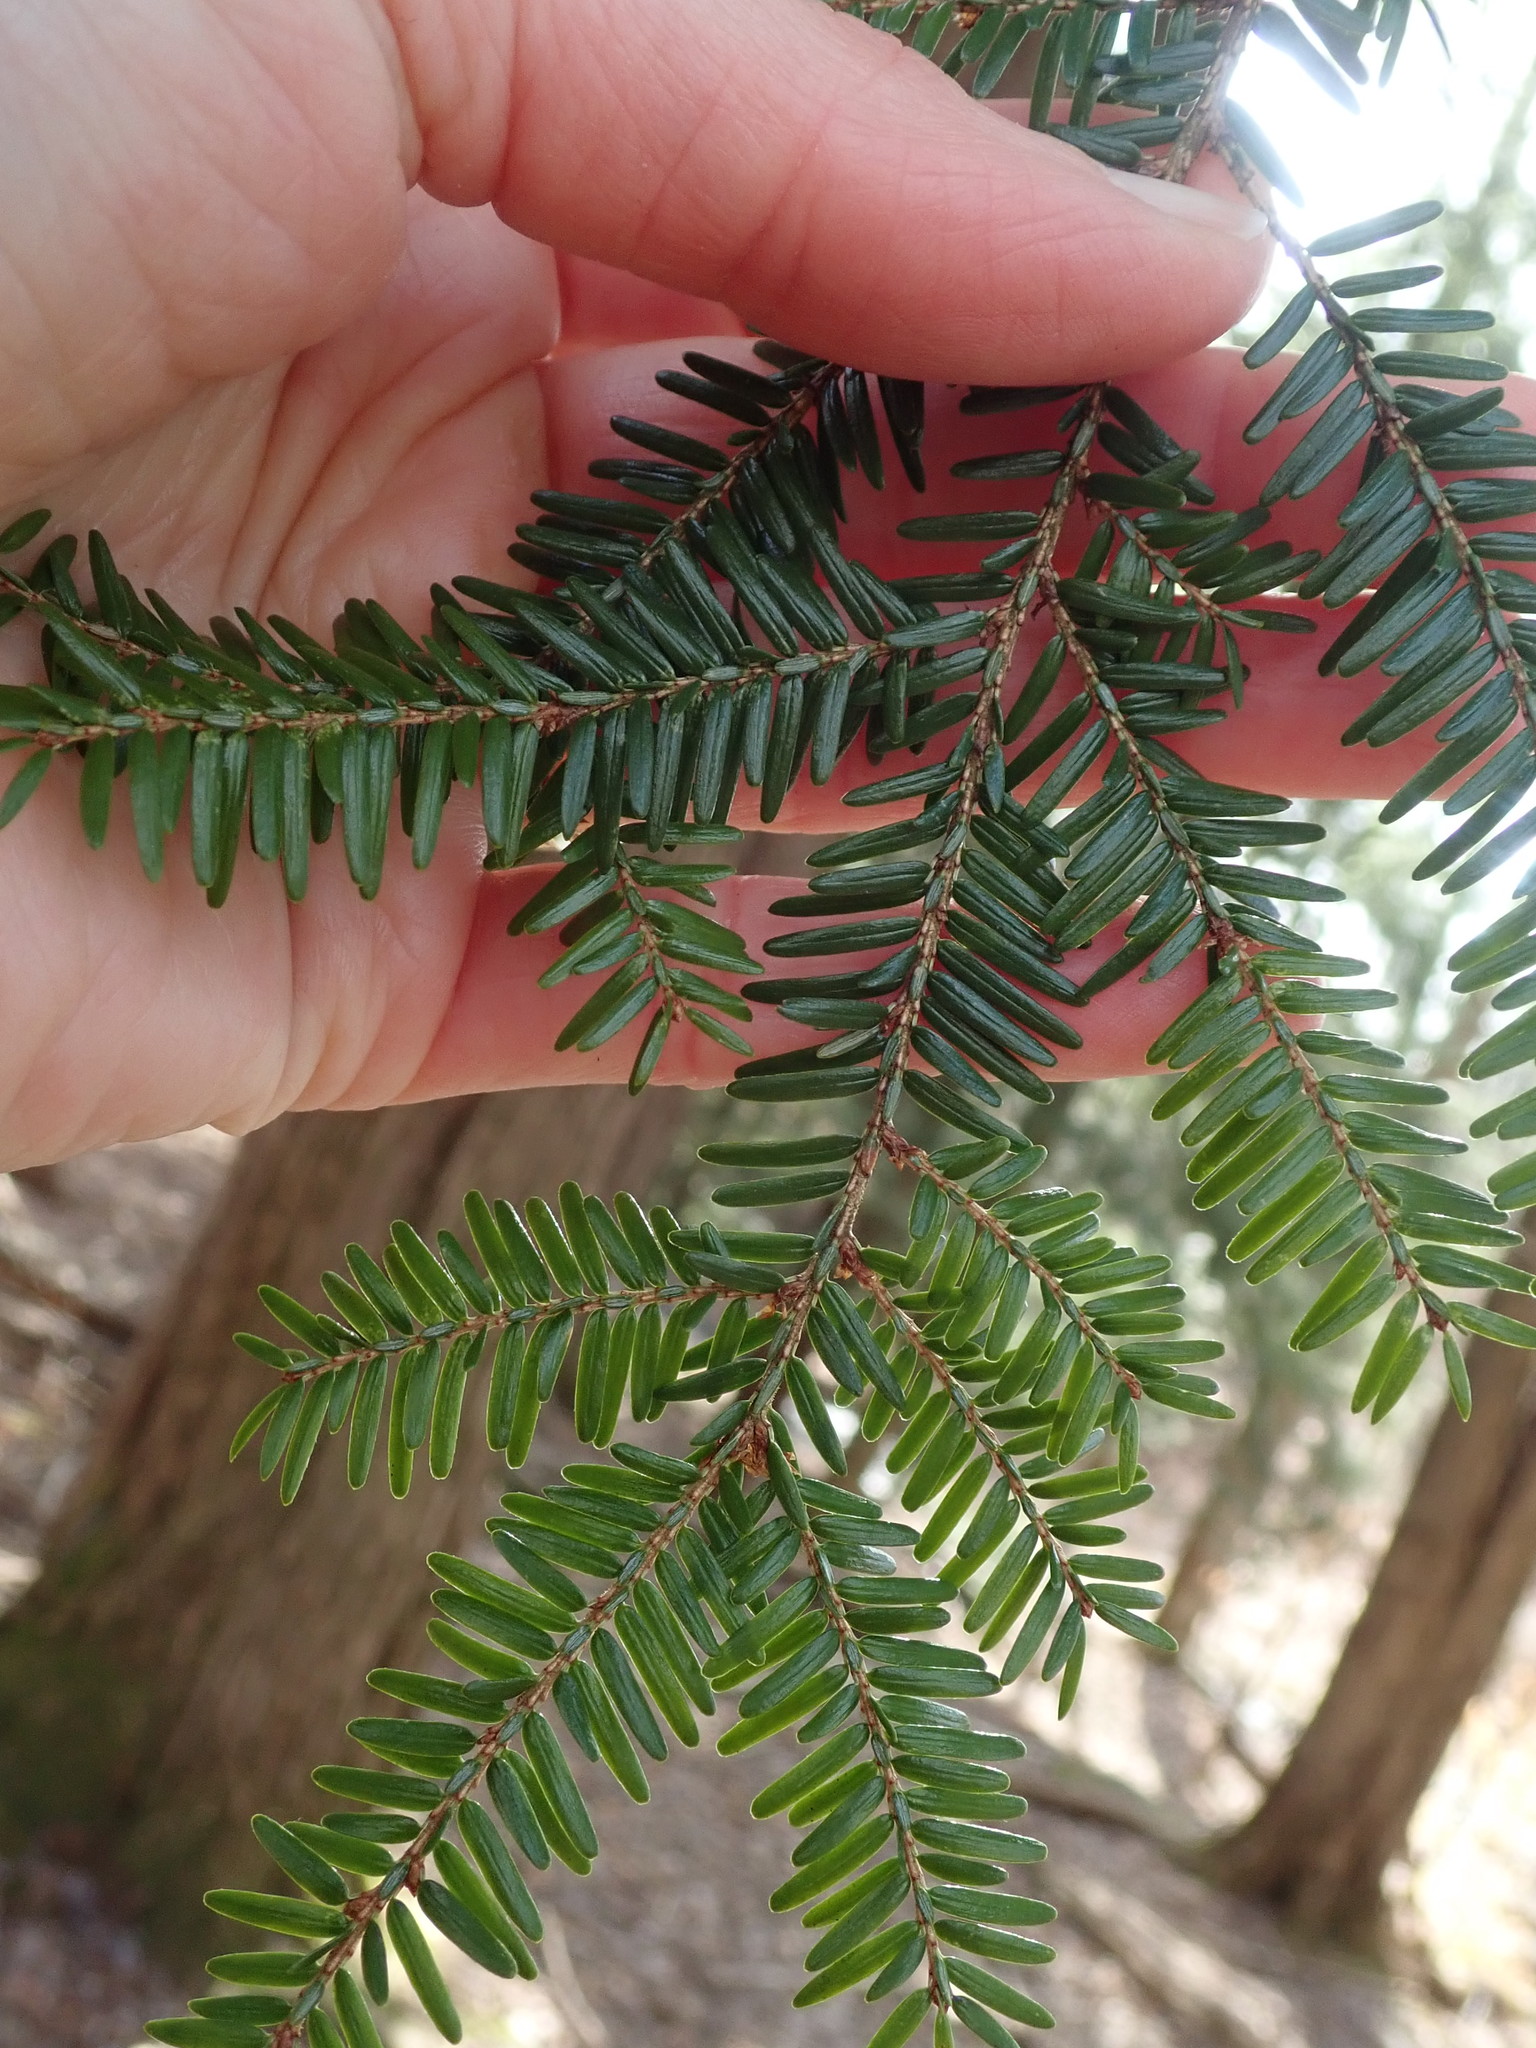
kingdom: Plantae
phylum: Tracheophyta
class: Pinopsida
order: Pinales
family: Pinaceae
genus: Tsuga
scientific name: Tsuga canadensis
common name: Eastern hemlock
